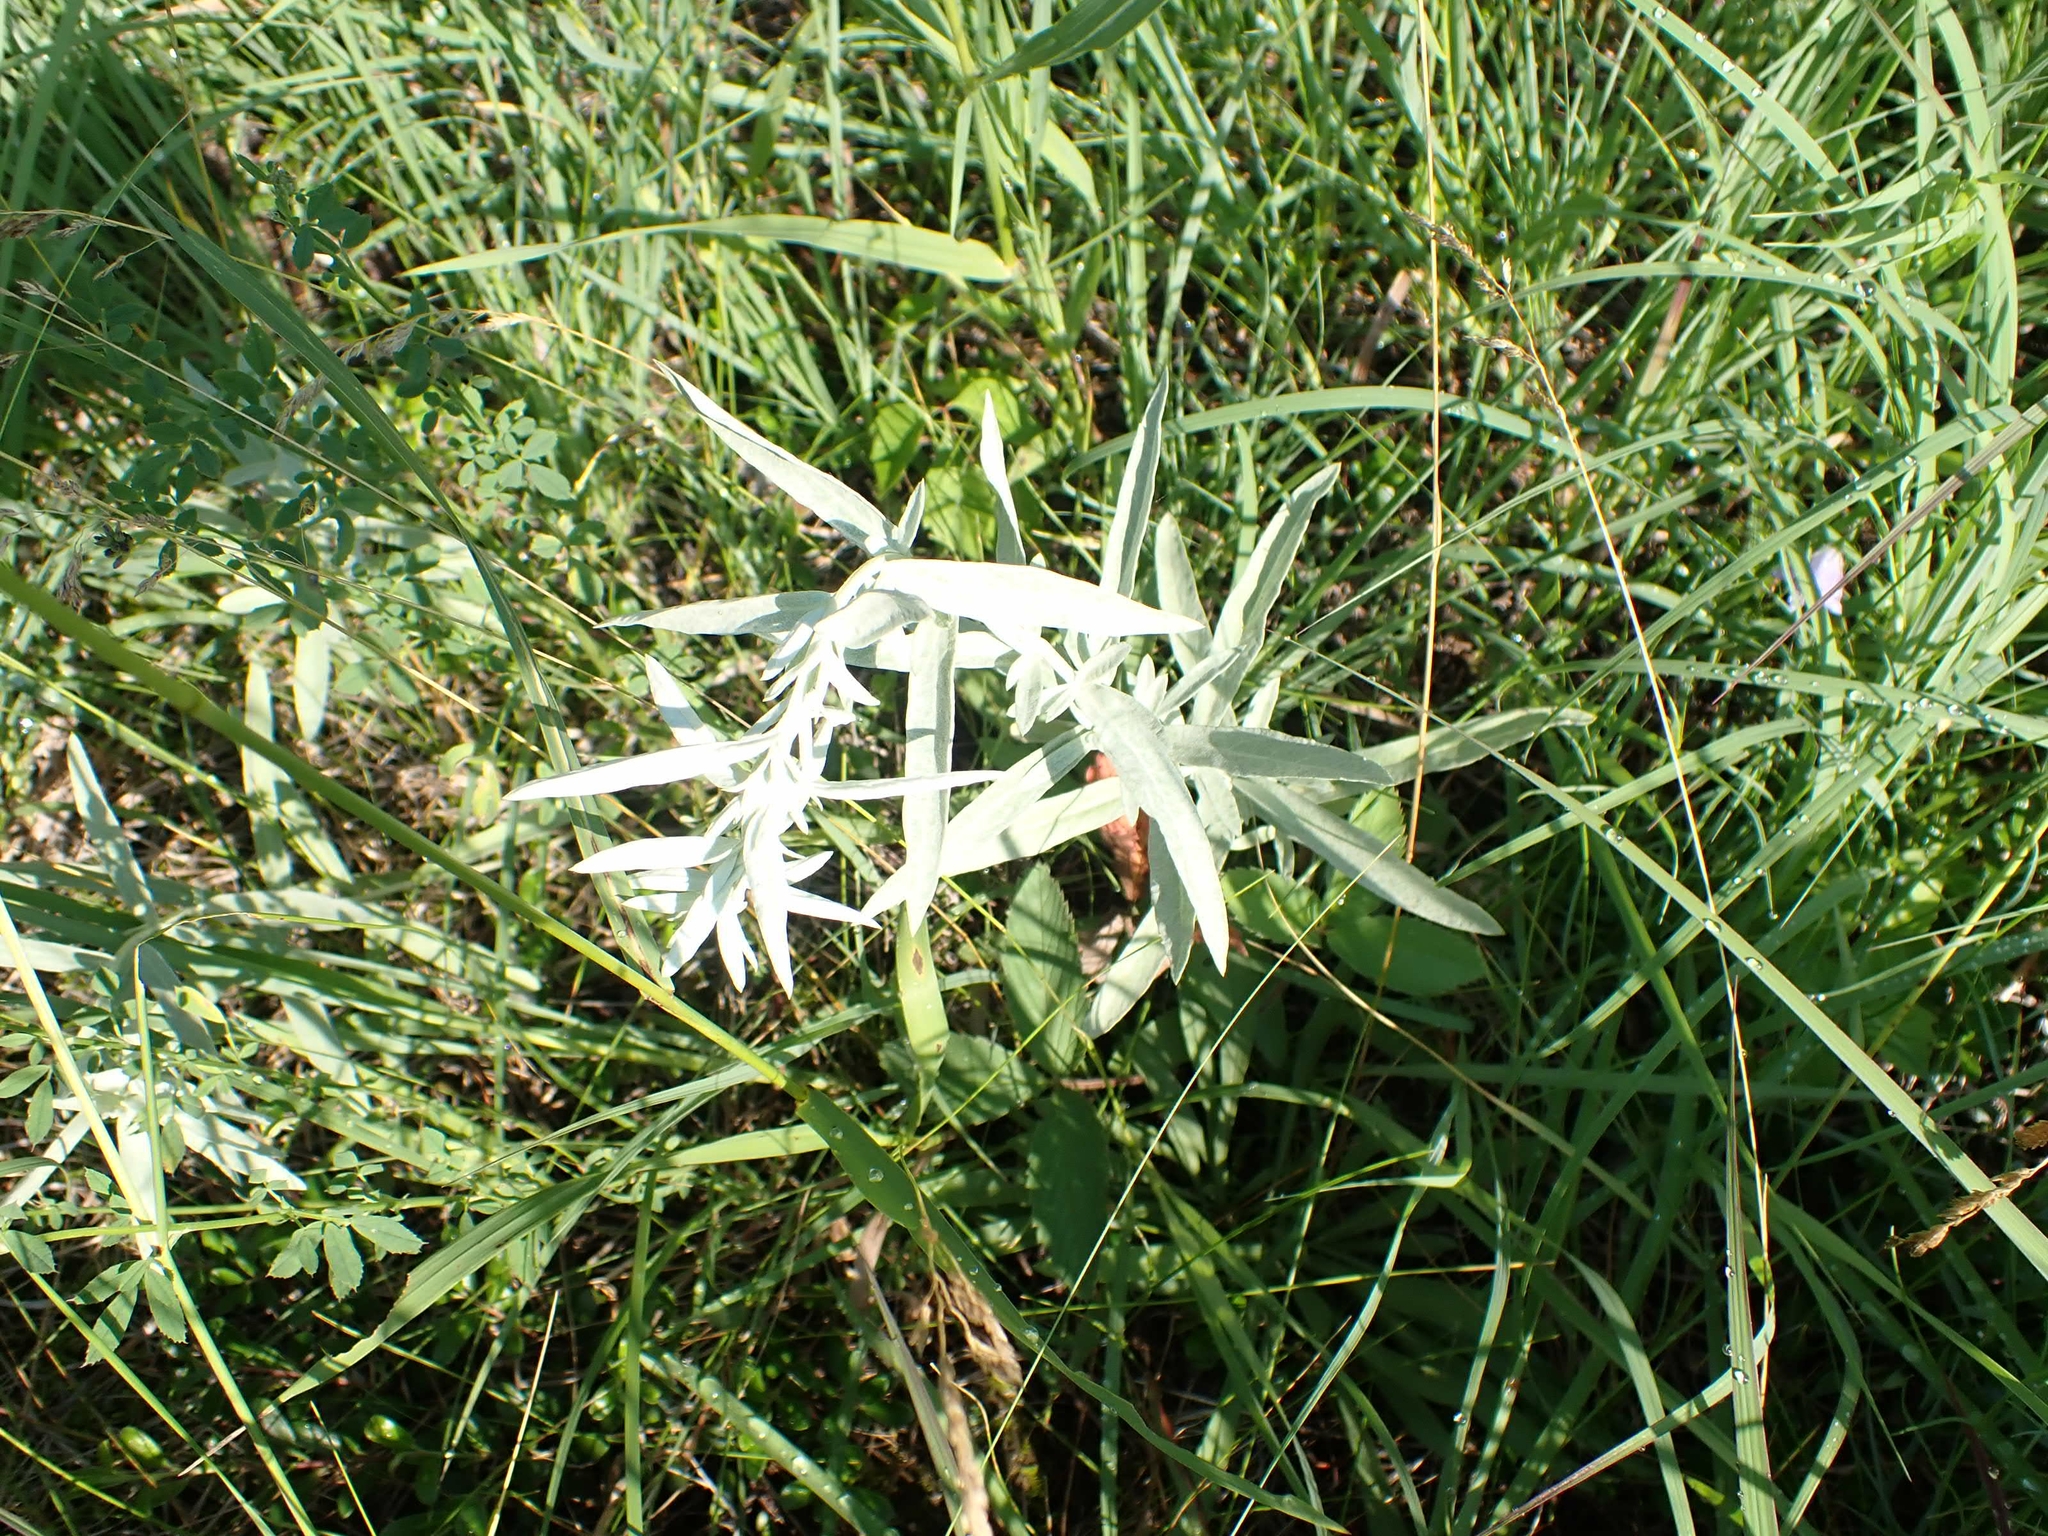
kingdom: Plantae
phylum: Tracheophyta
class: Magnoliopsida
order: Asterales
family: Asteraceae
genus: Artemisia
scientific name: Artemisia ludoviciana
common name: Western mugwort
